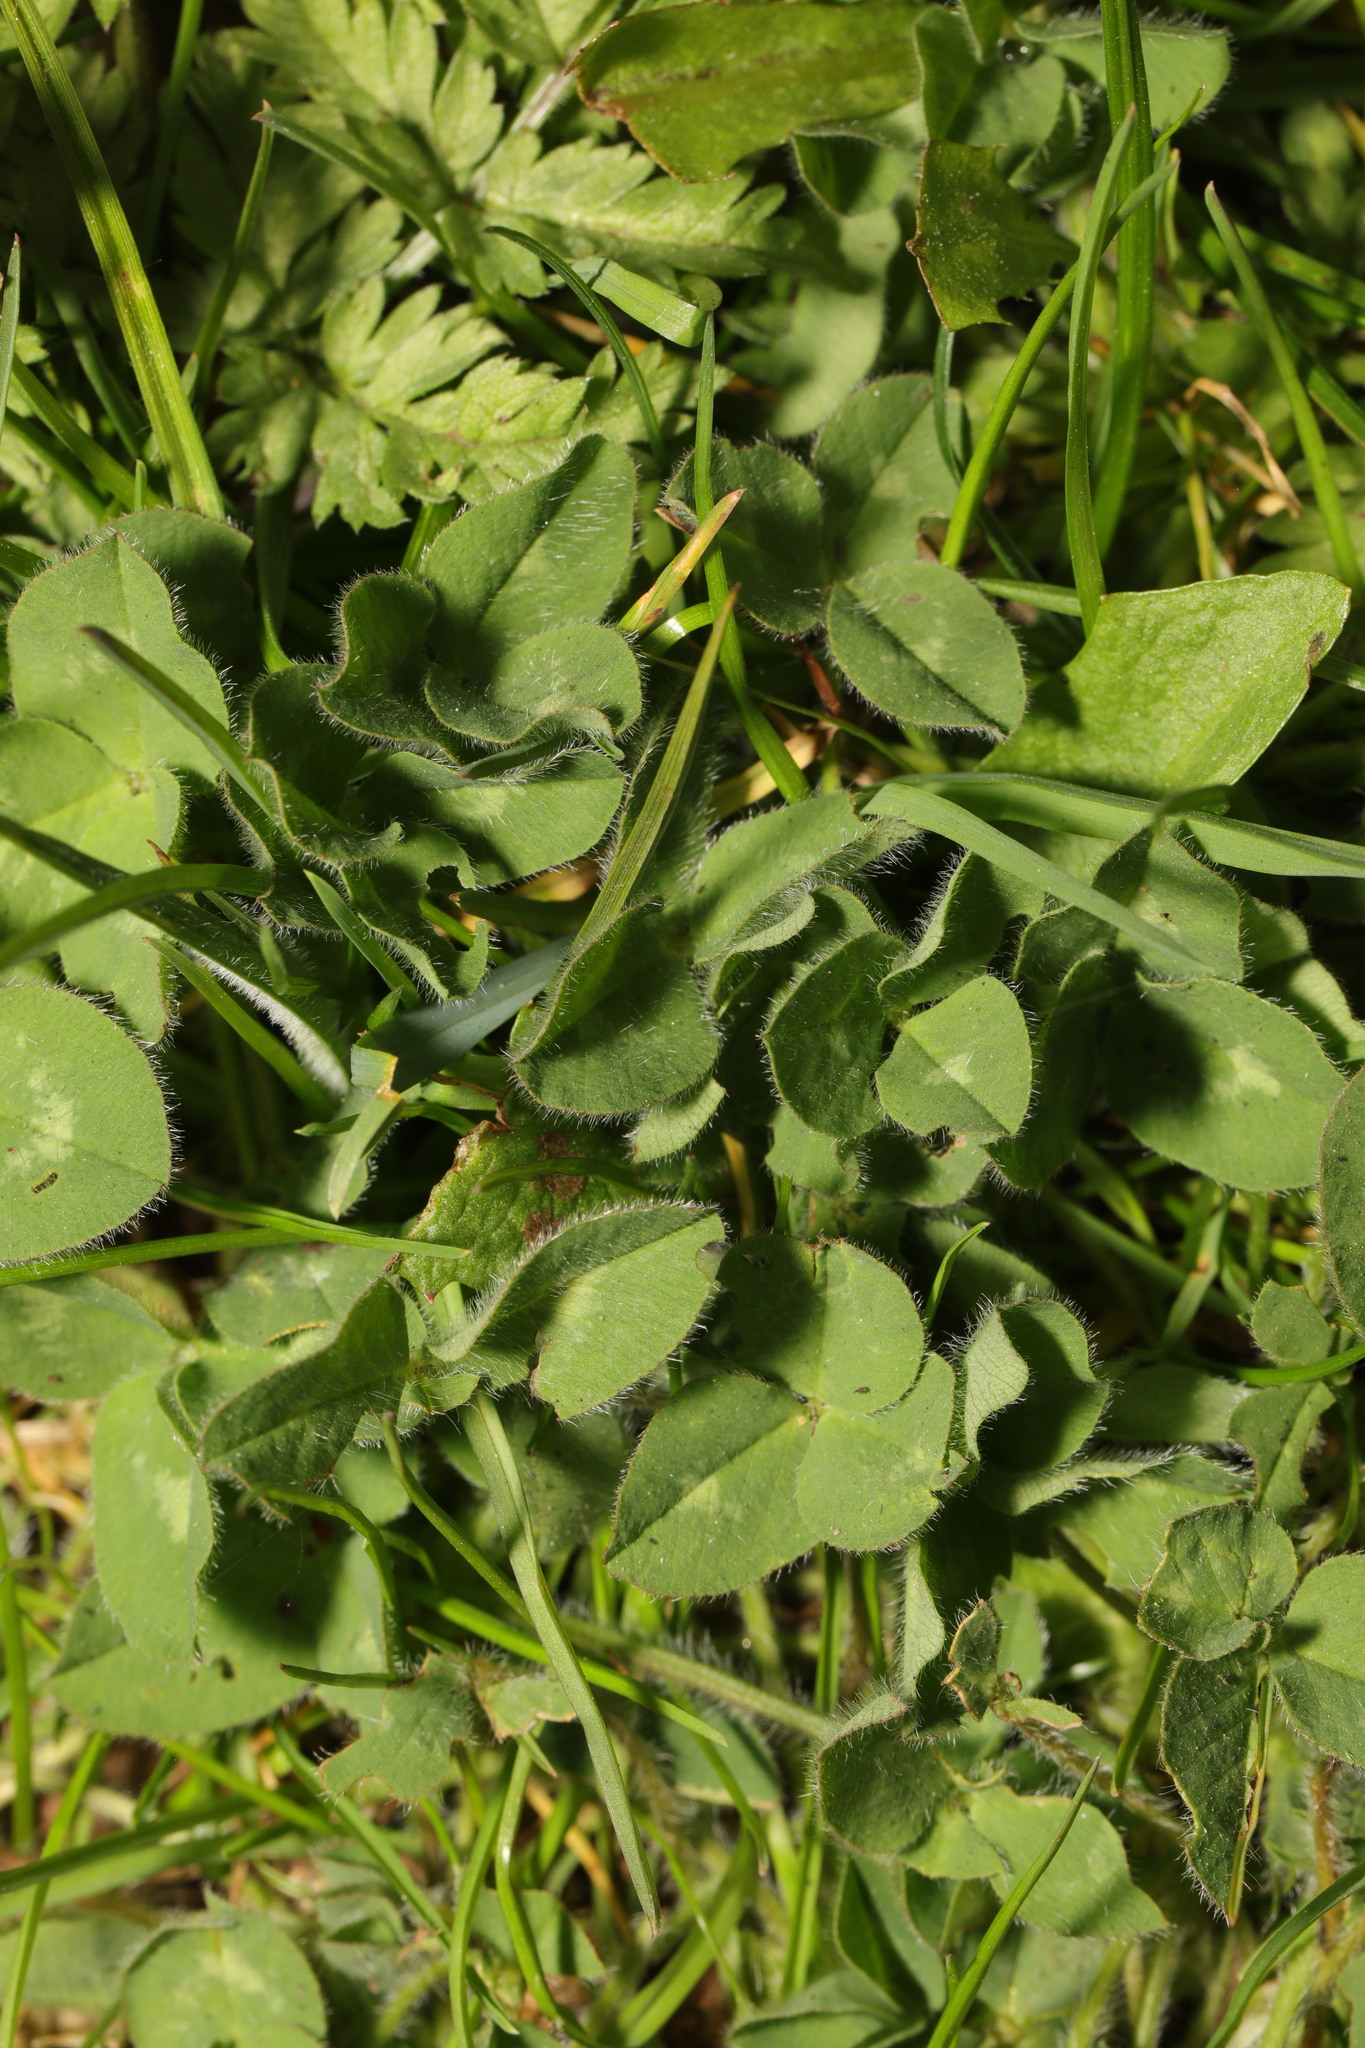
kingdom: Plantae
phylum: Tracheophyta
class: Magnoliopsida
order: Fabales
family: Fabaceae
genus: Trifolium
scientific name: Trifolium pratense
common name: Red clover
